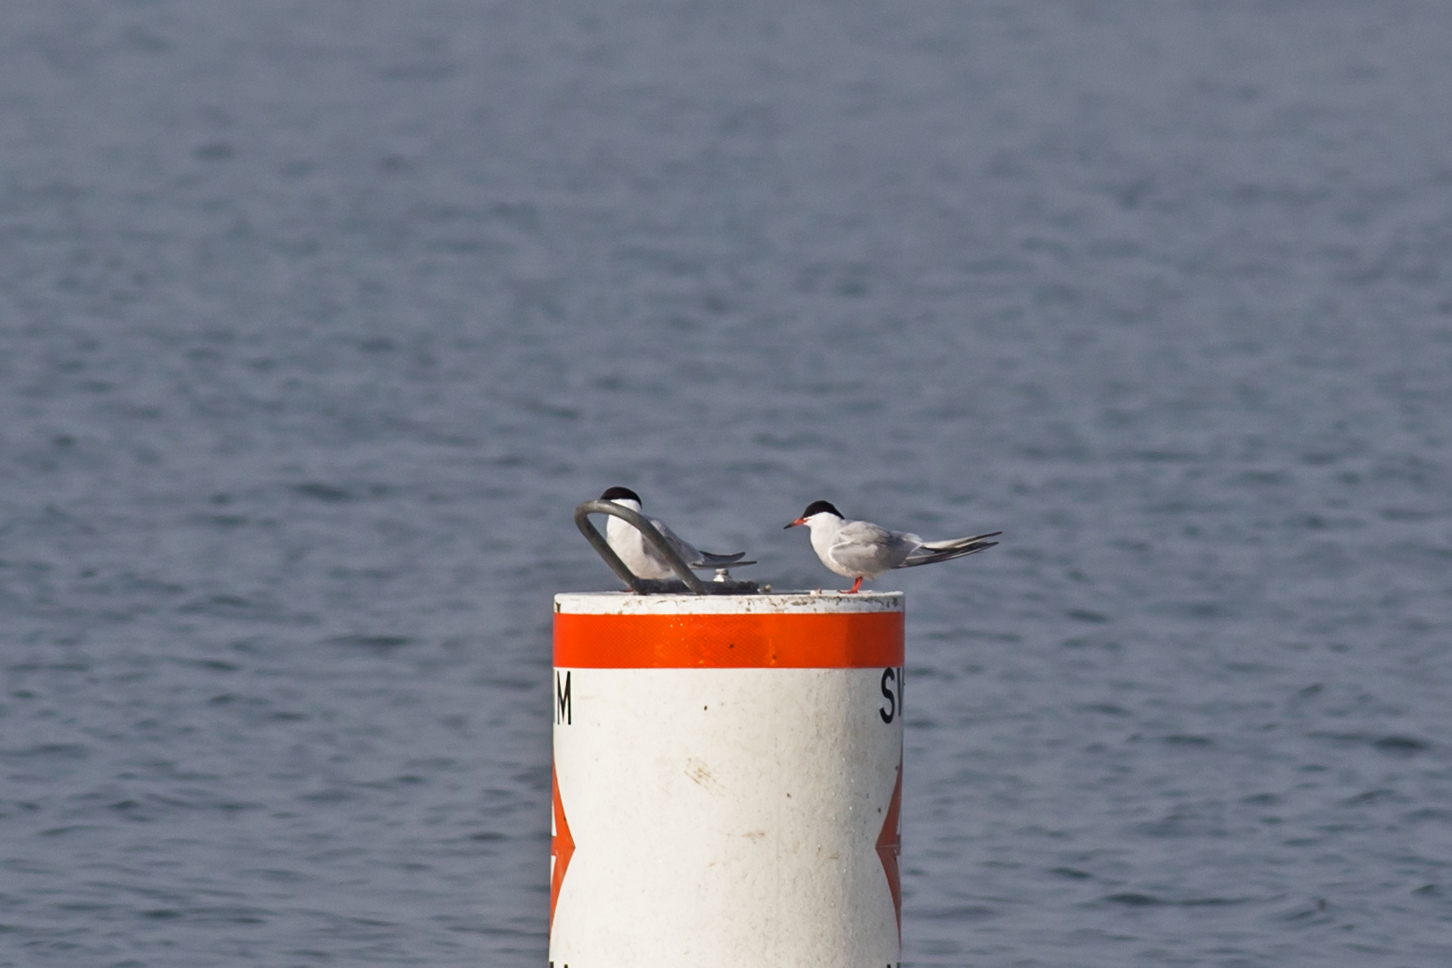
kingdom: Animalia
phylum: Chordata
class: Aves
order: Charadriiformes
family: Laridae
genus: Sterna
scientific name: Sterna hirundo
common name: Common tern
